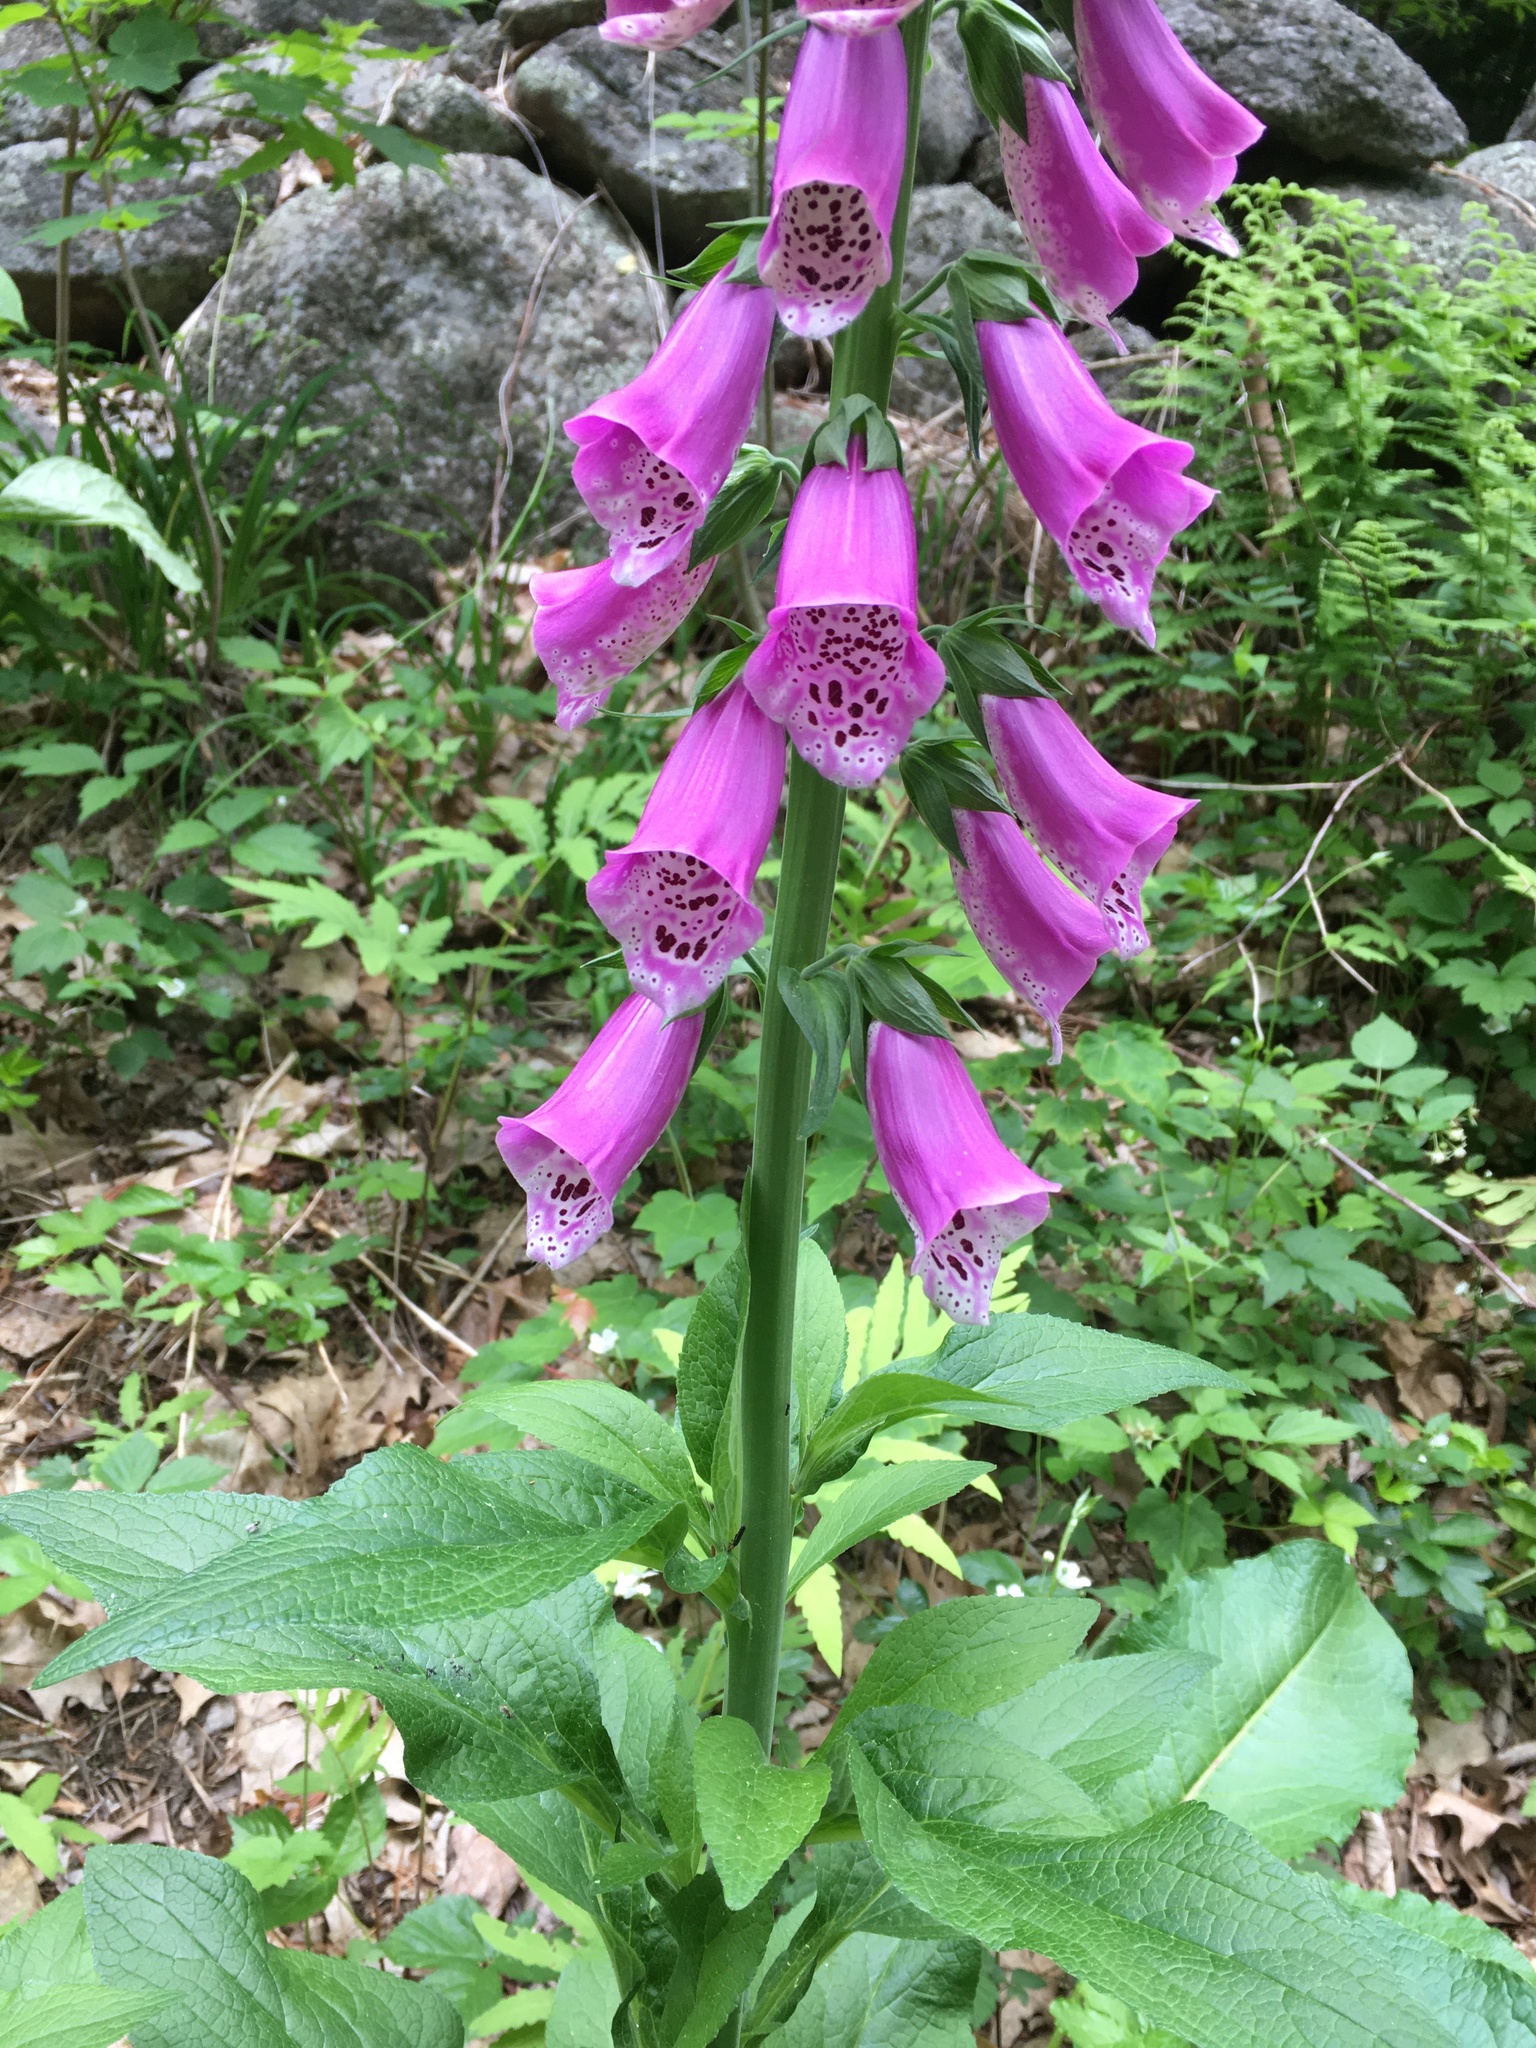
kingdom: Plantae
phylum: Tracheophyta
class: Magnoliopsida
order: Lamiales
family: Plantaginaceae
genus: Digitalis
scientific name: Digitalis purpurea
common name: Foxglove
